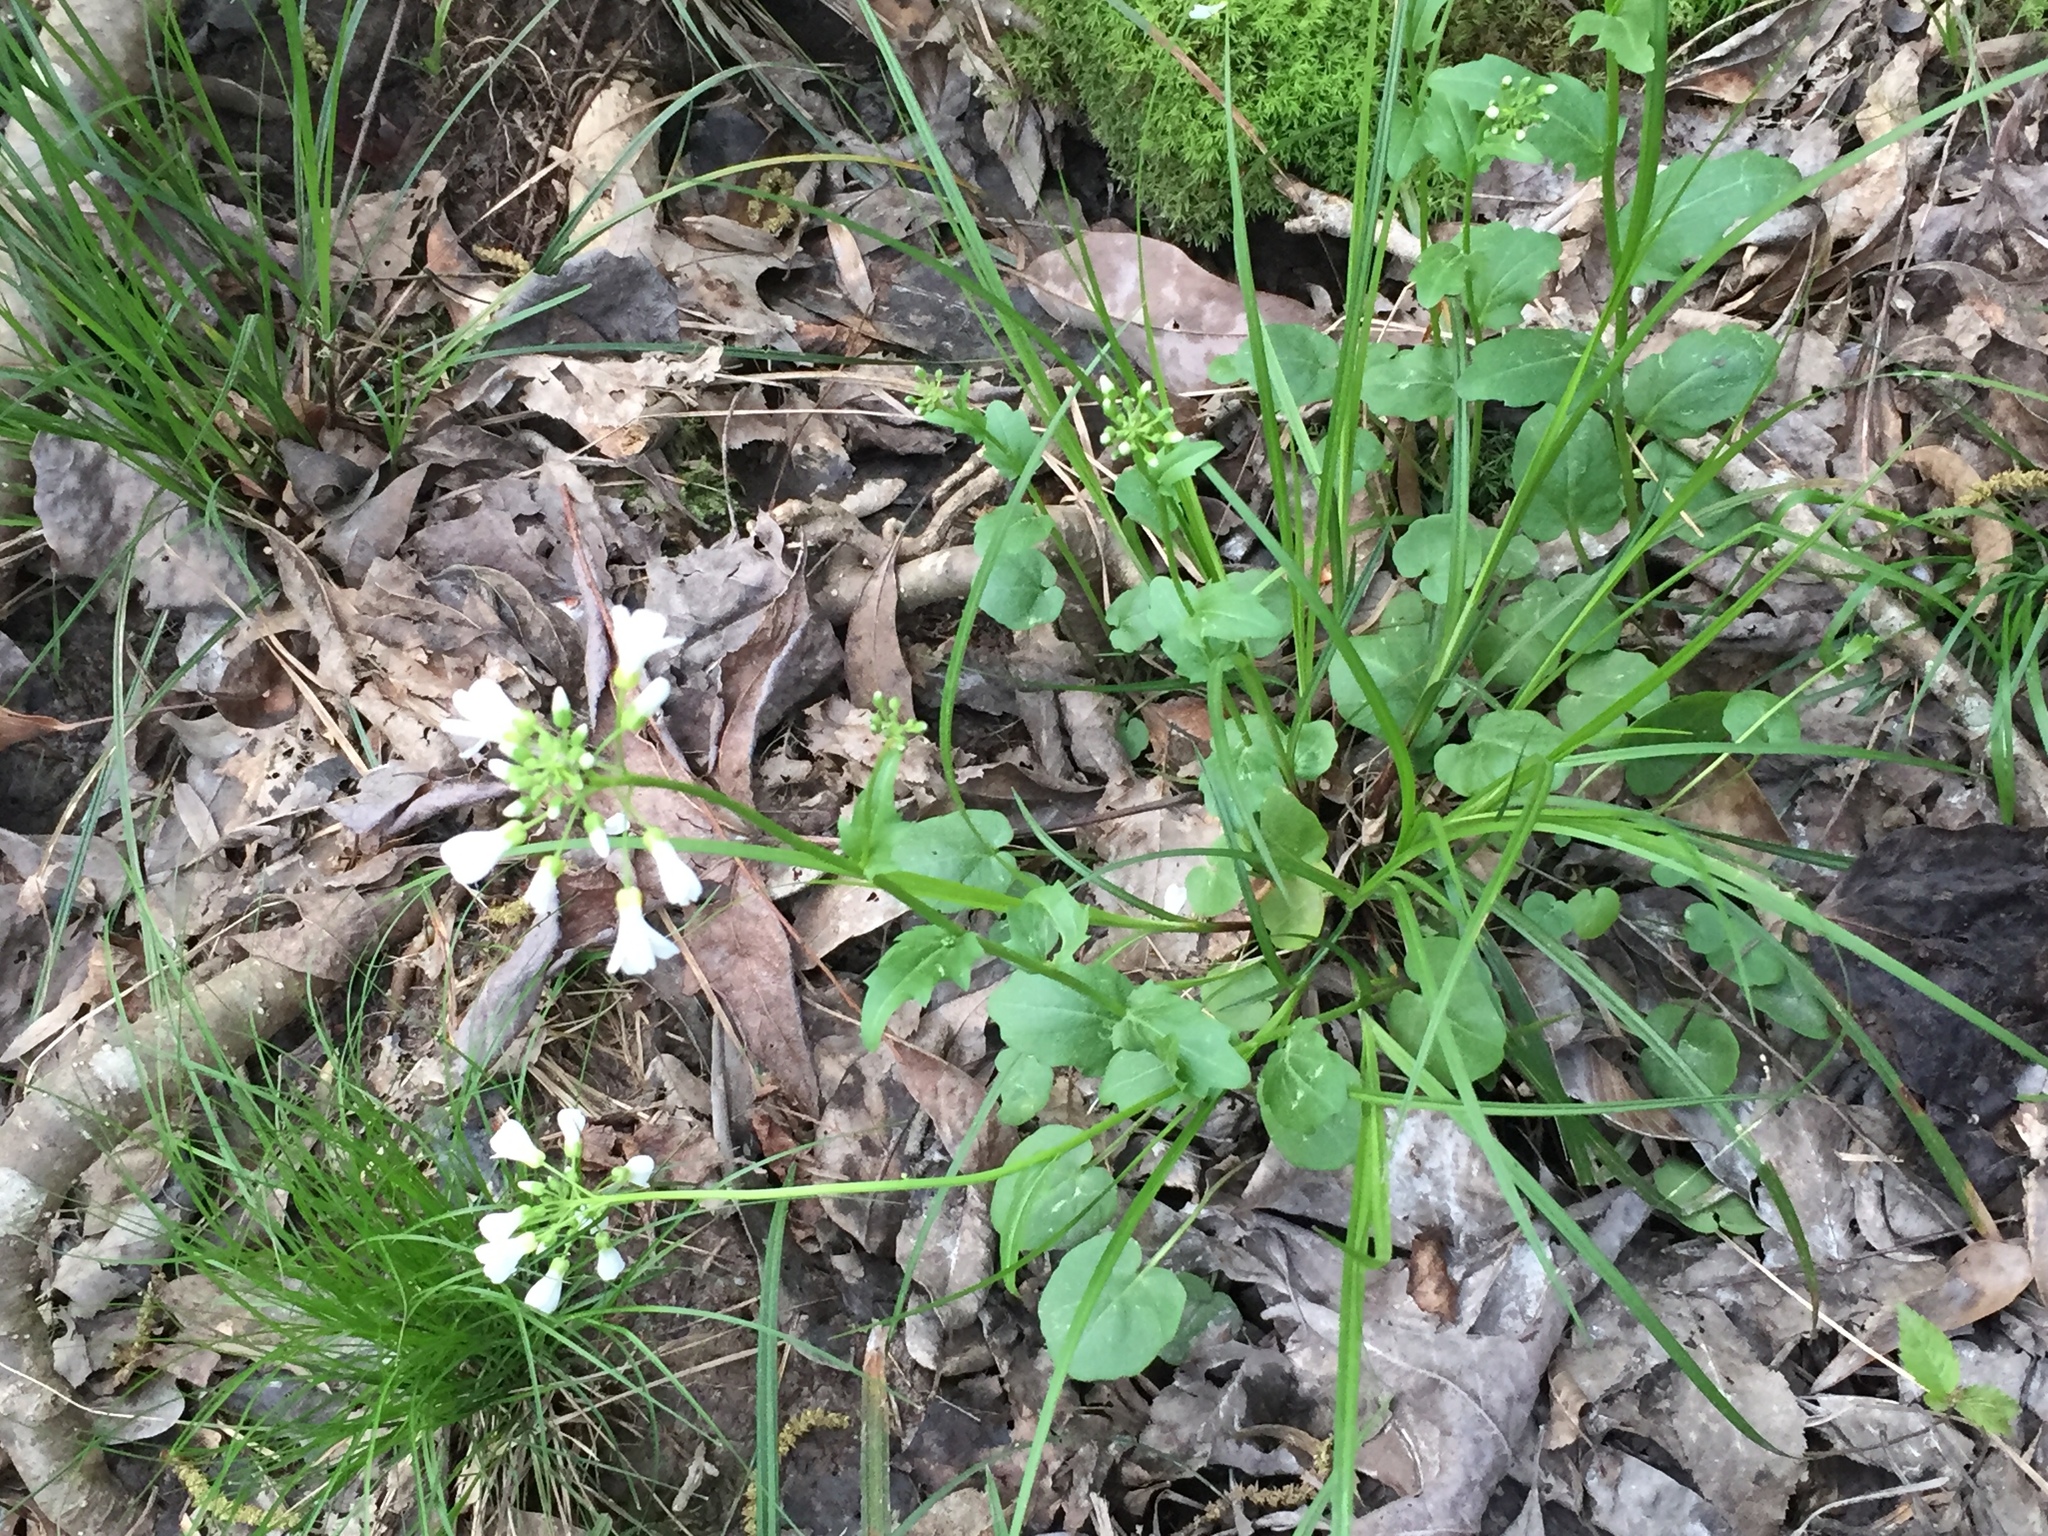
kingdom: Plantae
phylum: Tracheophyta
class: Magnoliopsida
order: Brassicales
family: Brassicaceae
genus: Cardamine
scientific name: Cardamine bulbosa
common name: Spring cress
